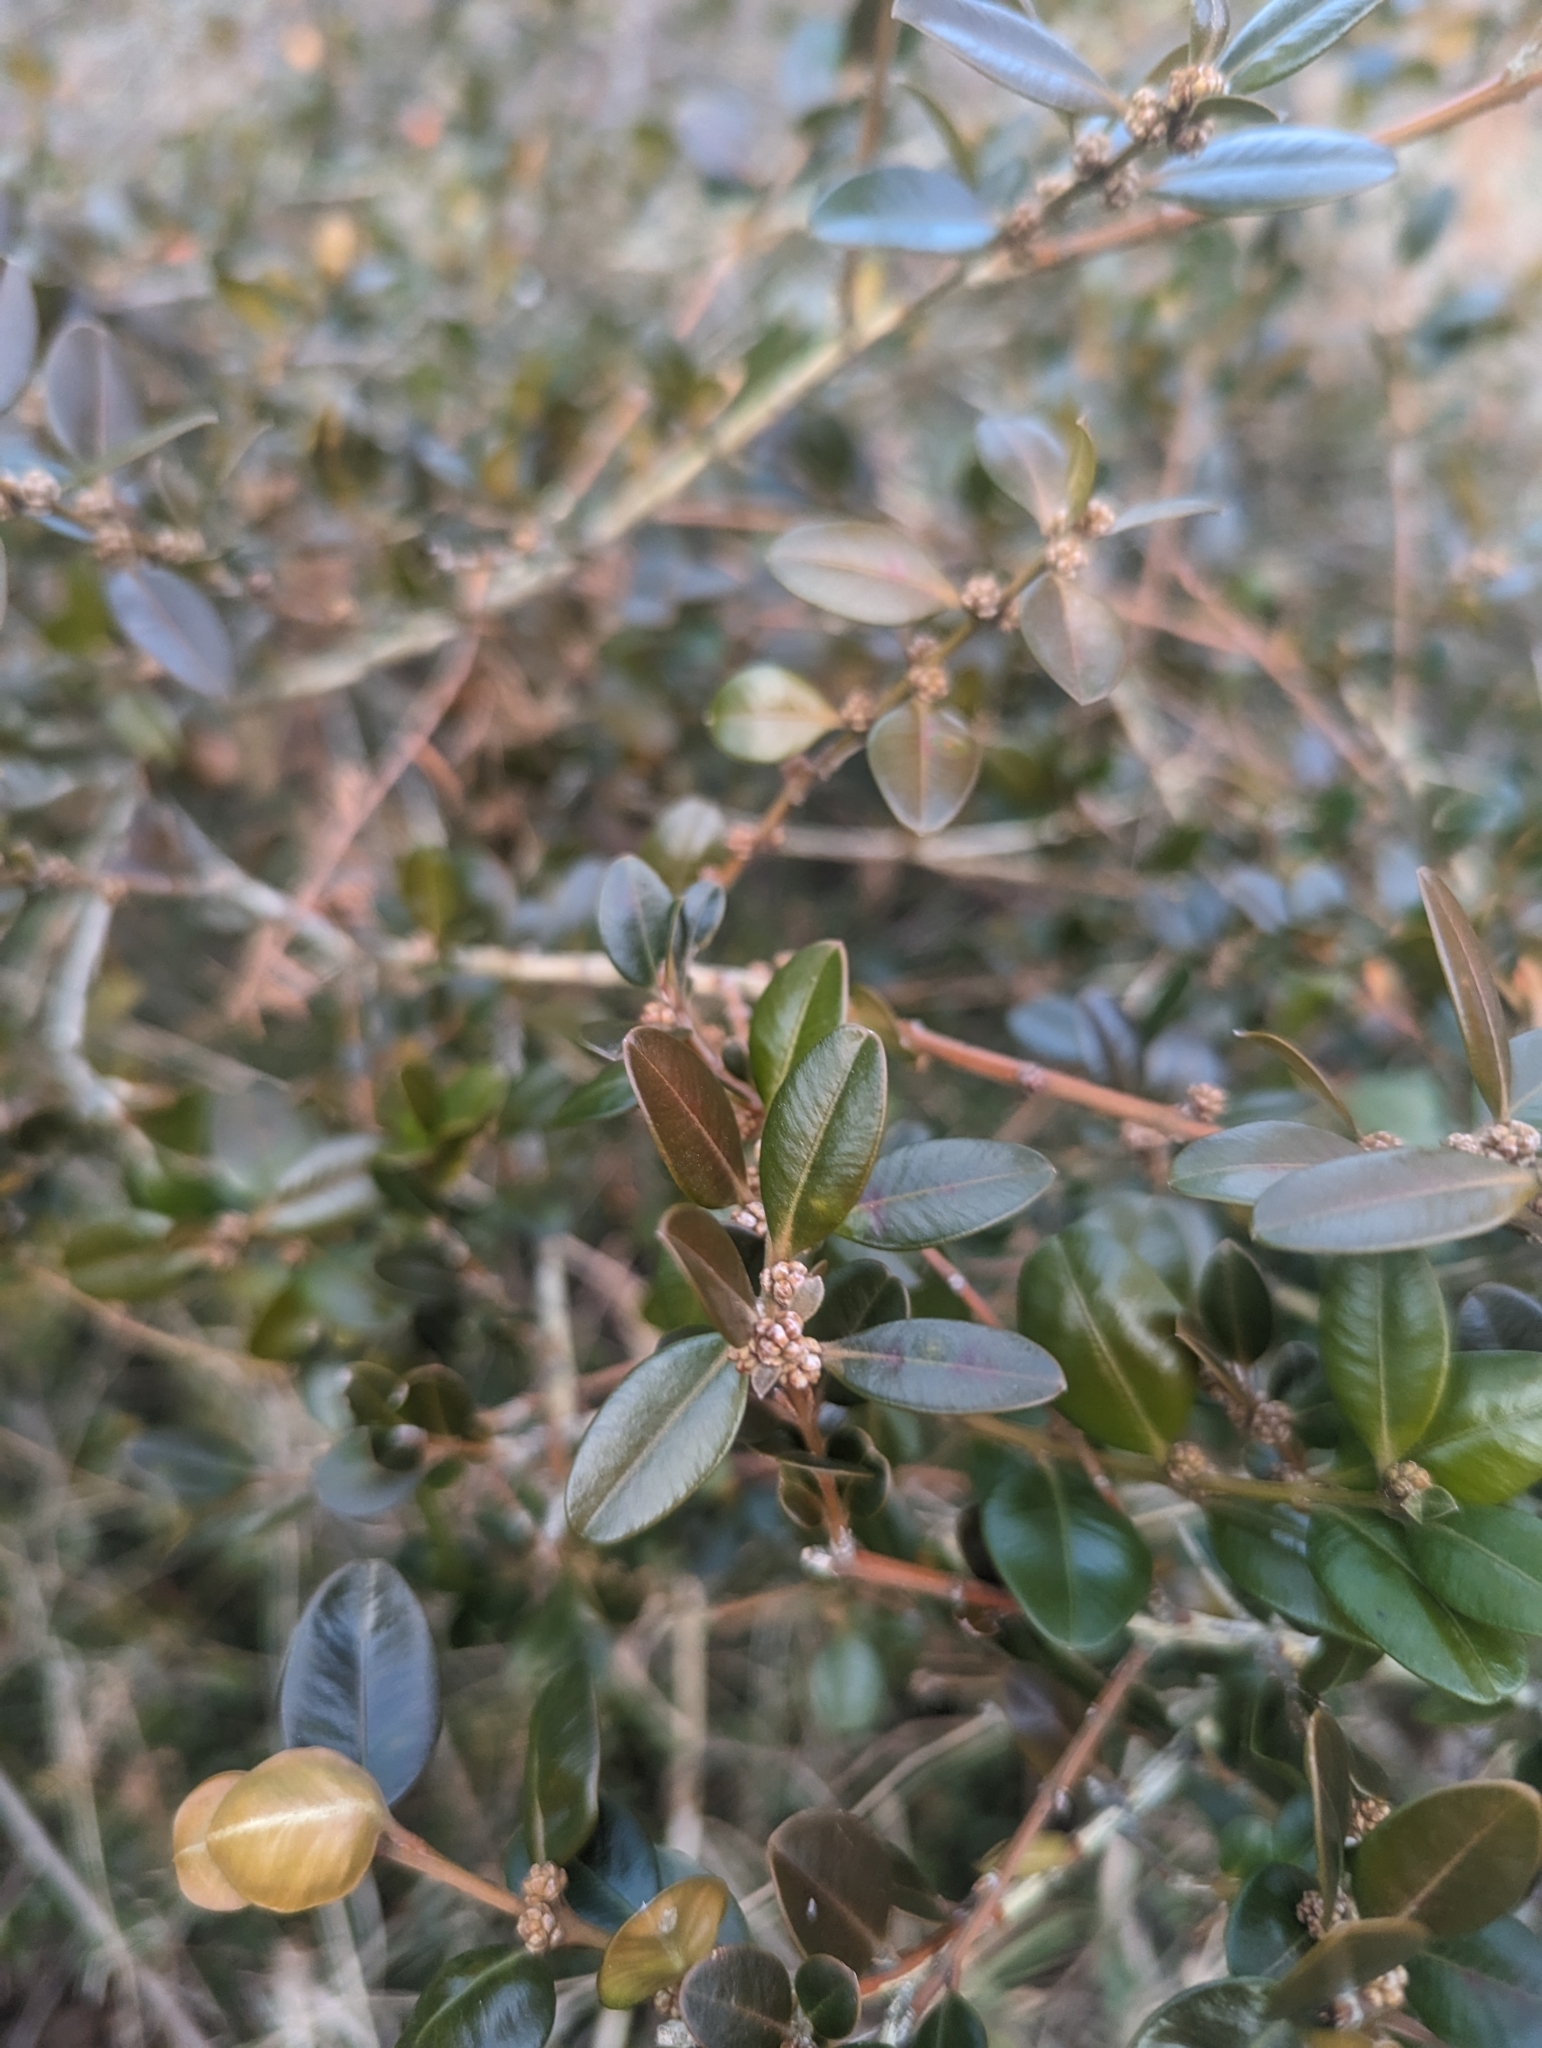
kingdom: Plantae
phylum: Tracheophyta
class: Magnoliopsida
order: Buxales
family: Buxaceae
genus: Buxus
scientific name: Buxus sempervirens
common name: Box
